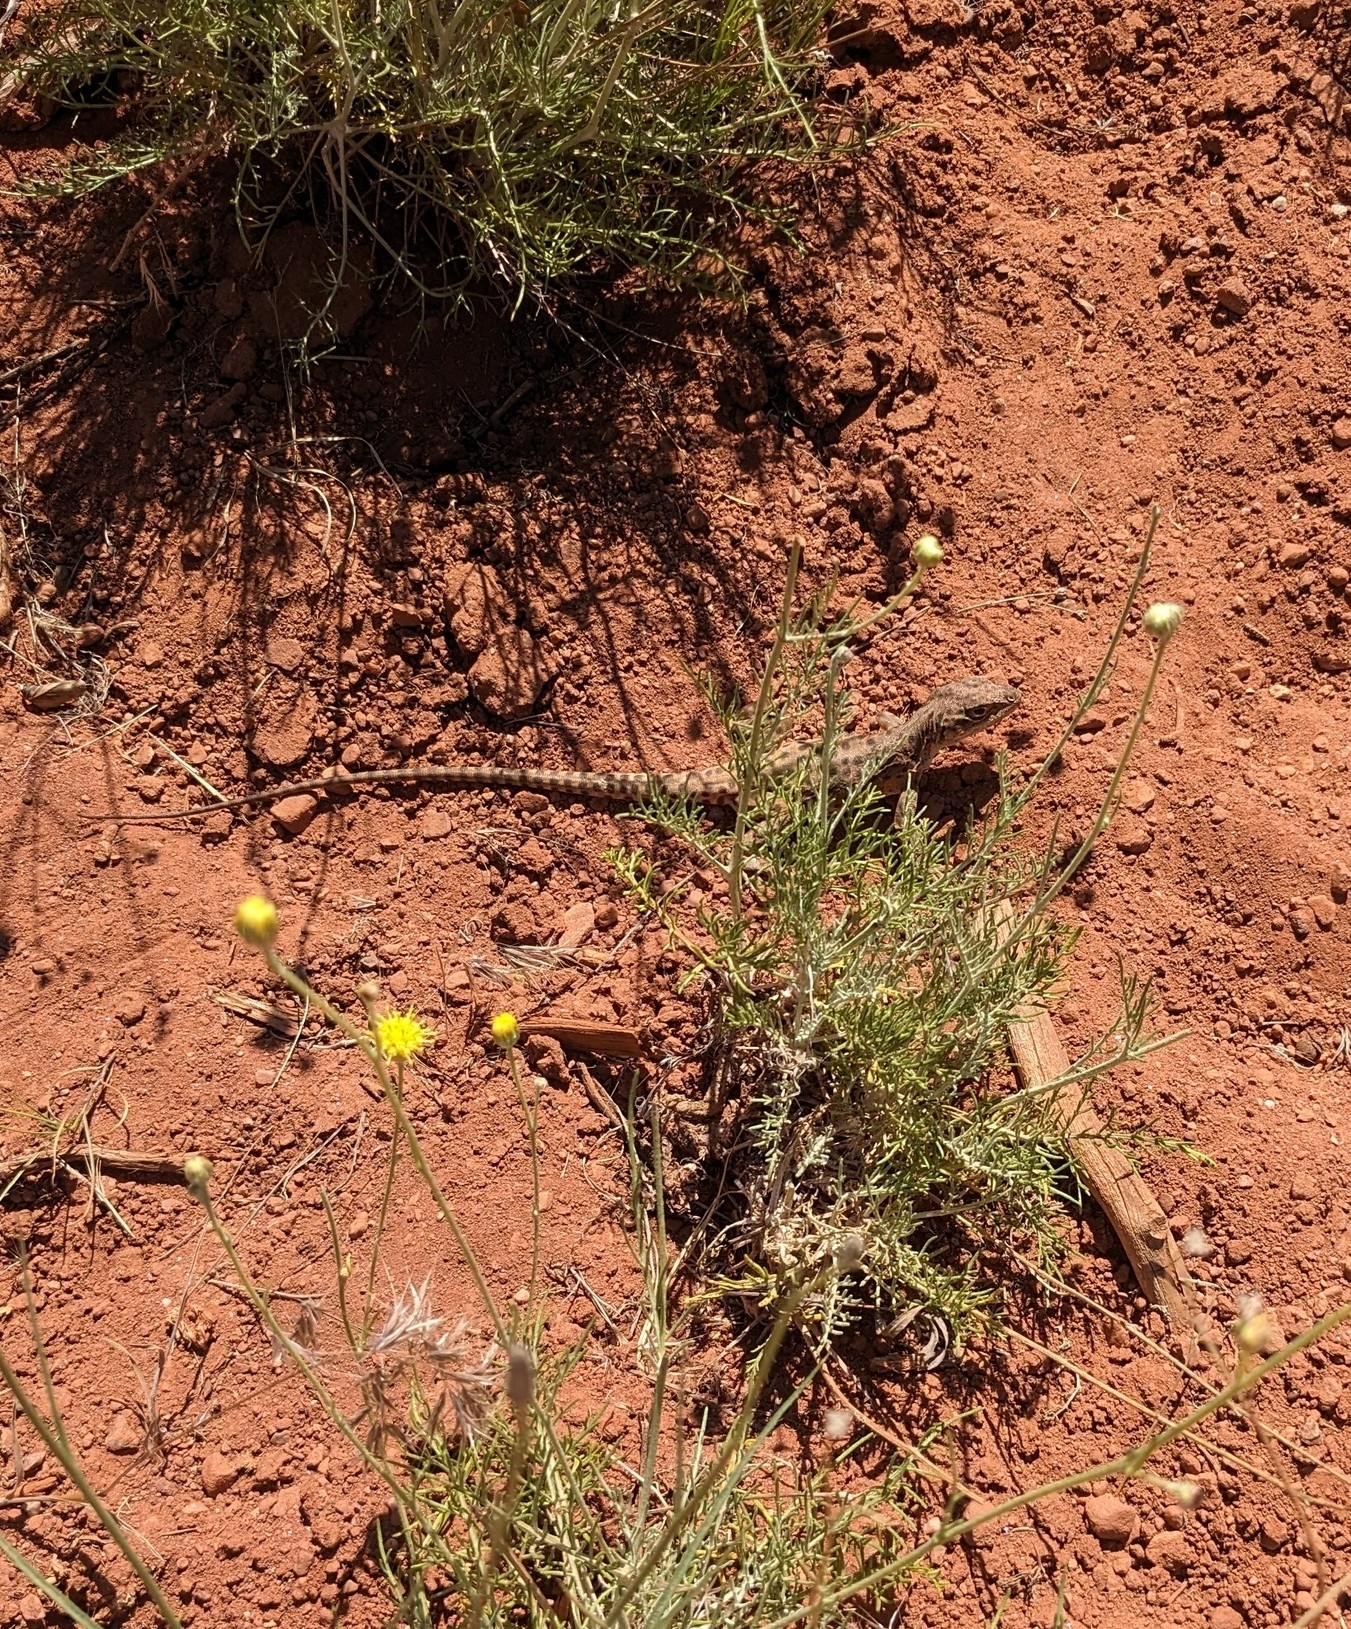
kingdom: Animalia
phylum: Chordata
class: Squamata
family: Crotaphytidae
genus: Gambelia
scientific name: Gambelia wislizenii
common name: Longnose leopard lizard
